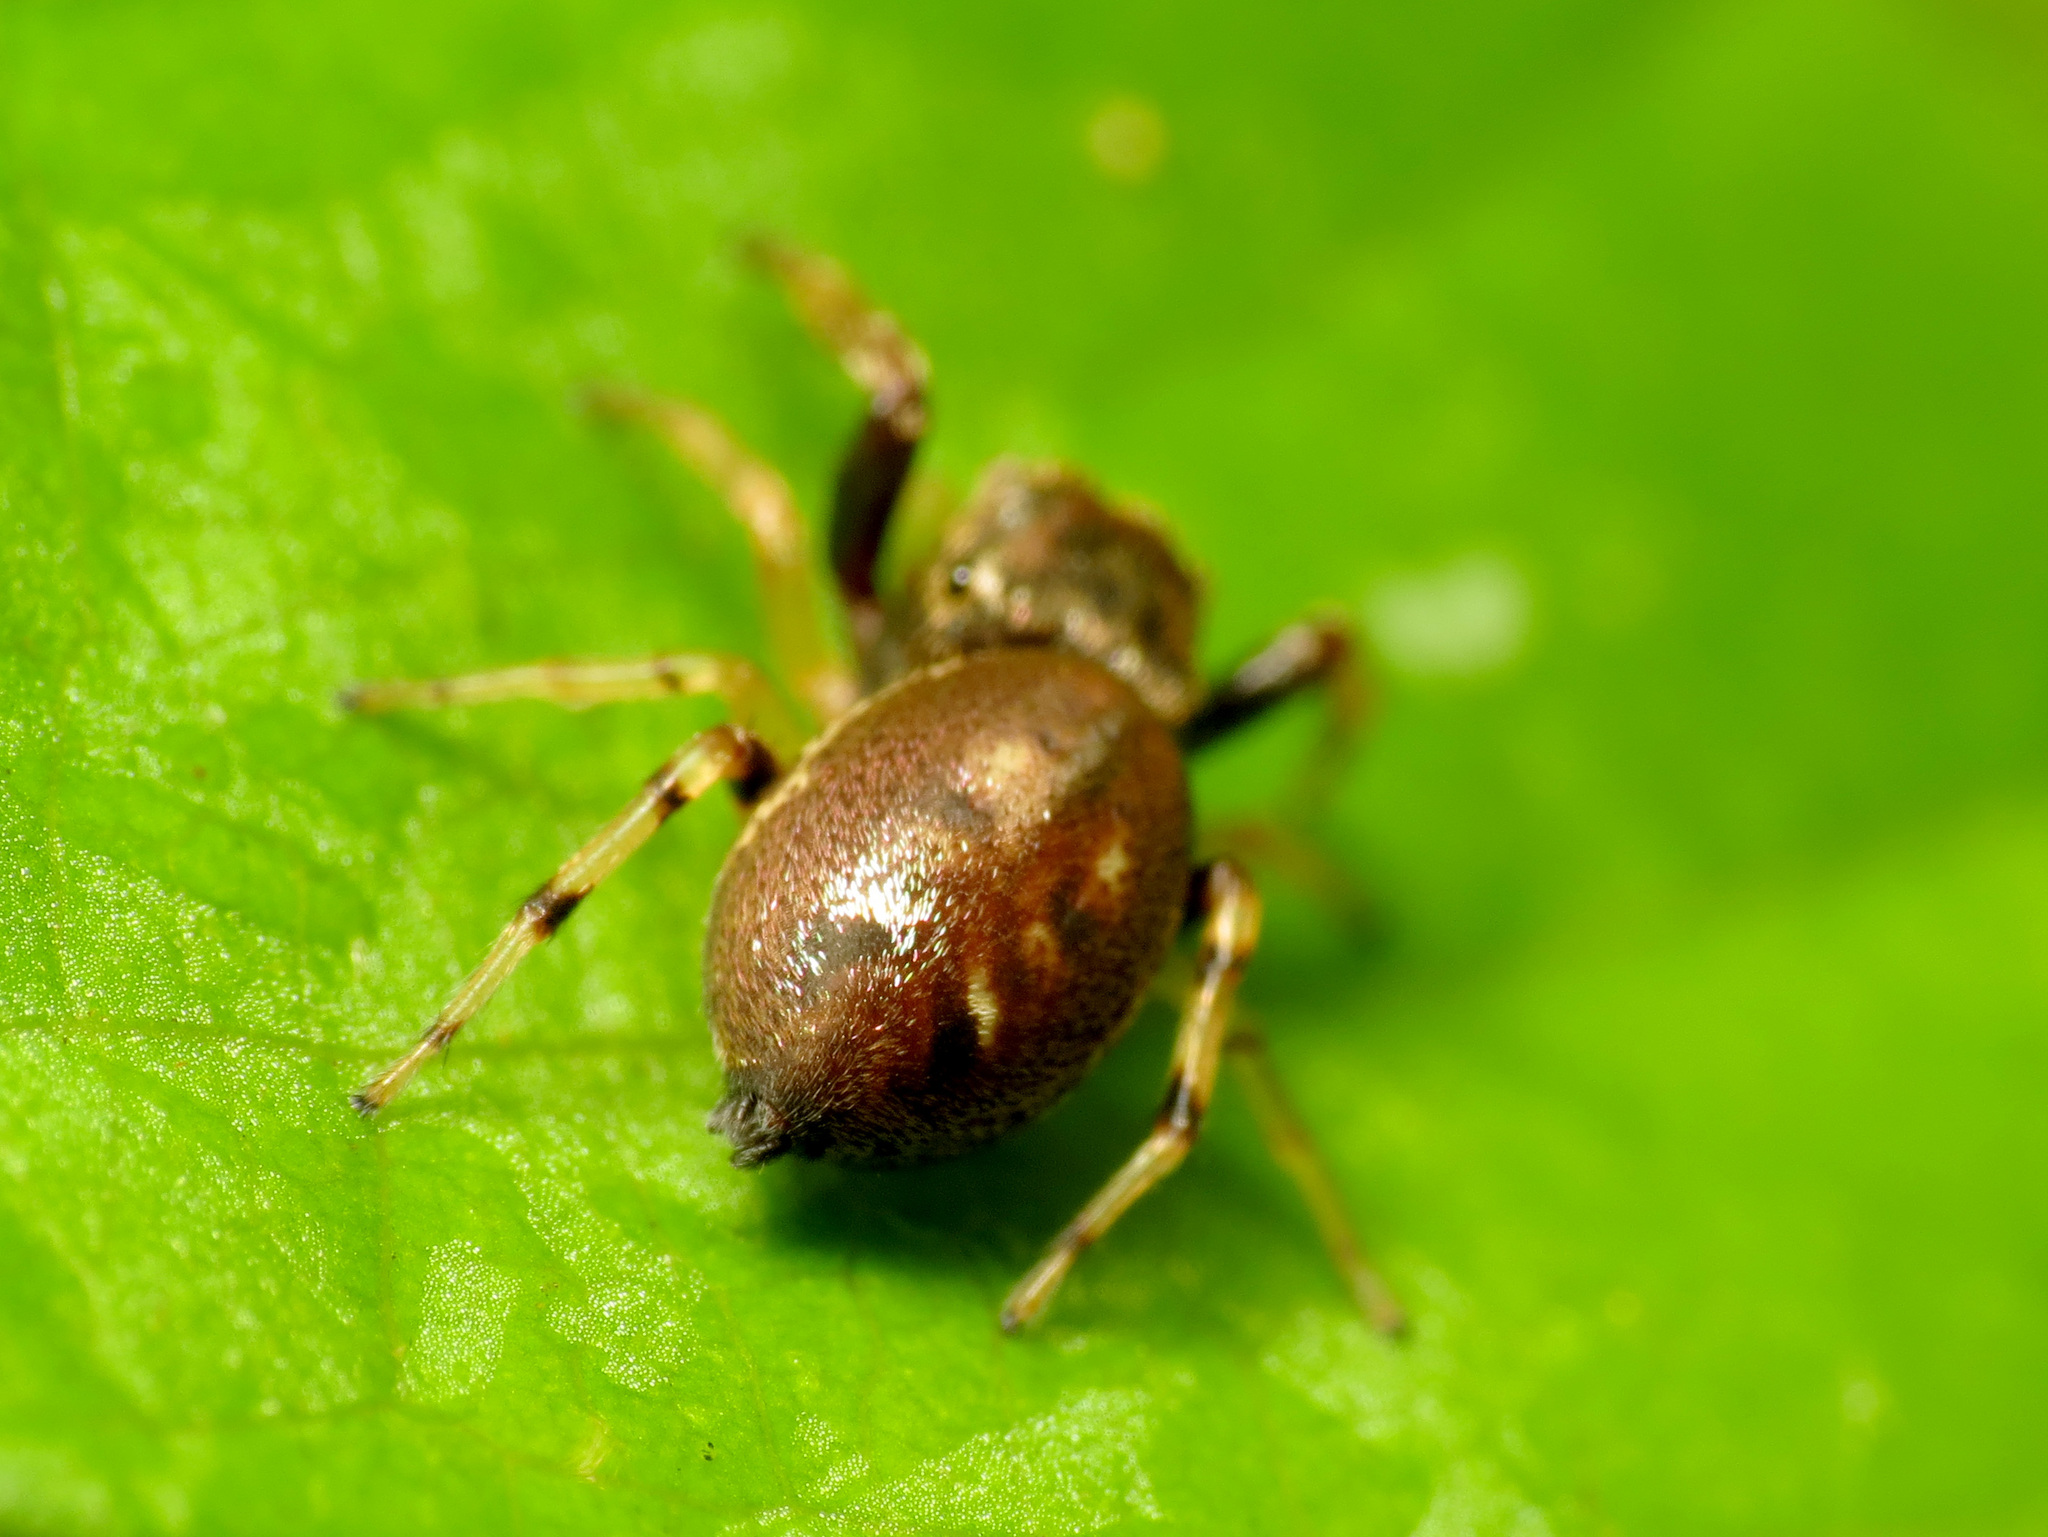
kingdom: Animalia
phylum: Arthropoda
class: Arachnida
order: Araneae
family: Salticidae
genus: Zygoballus
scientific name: Zygoballus rufipes
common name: Jumping spiders
